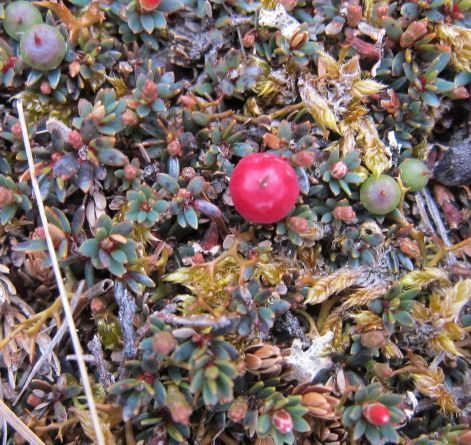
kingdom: Plantae
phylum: Tracheophyta
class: Magnoliopsida
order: Ericales
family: Ericaceae
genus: Pentachondra
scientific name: Pentachondra pumila
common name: Carpet-heath
